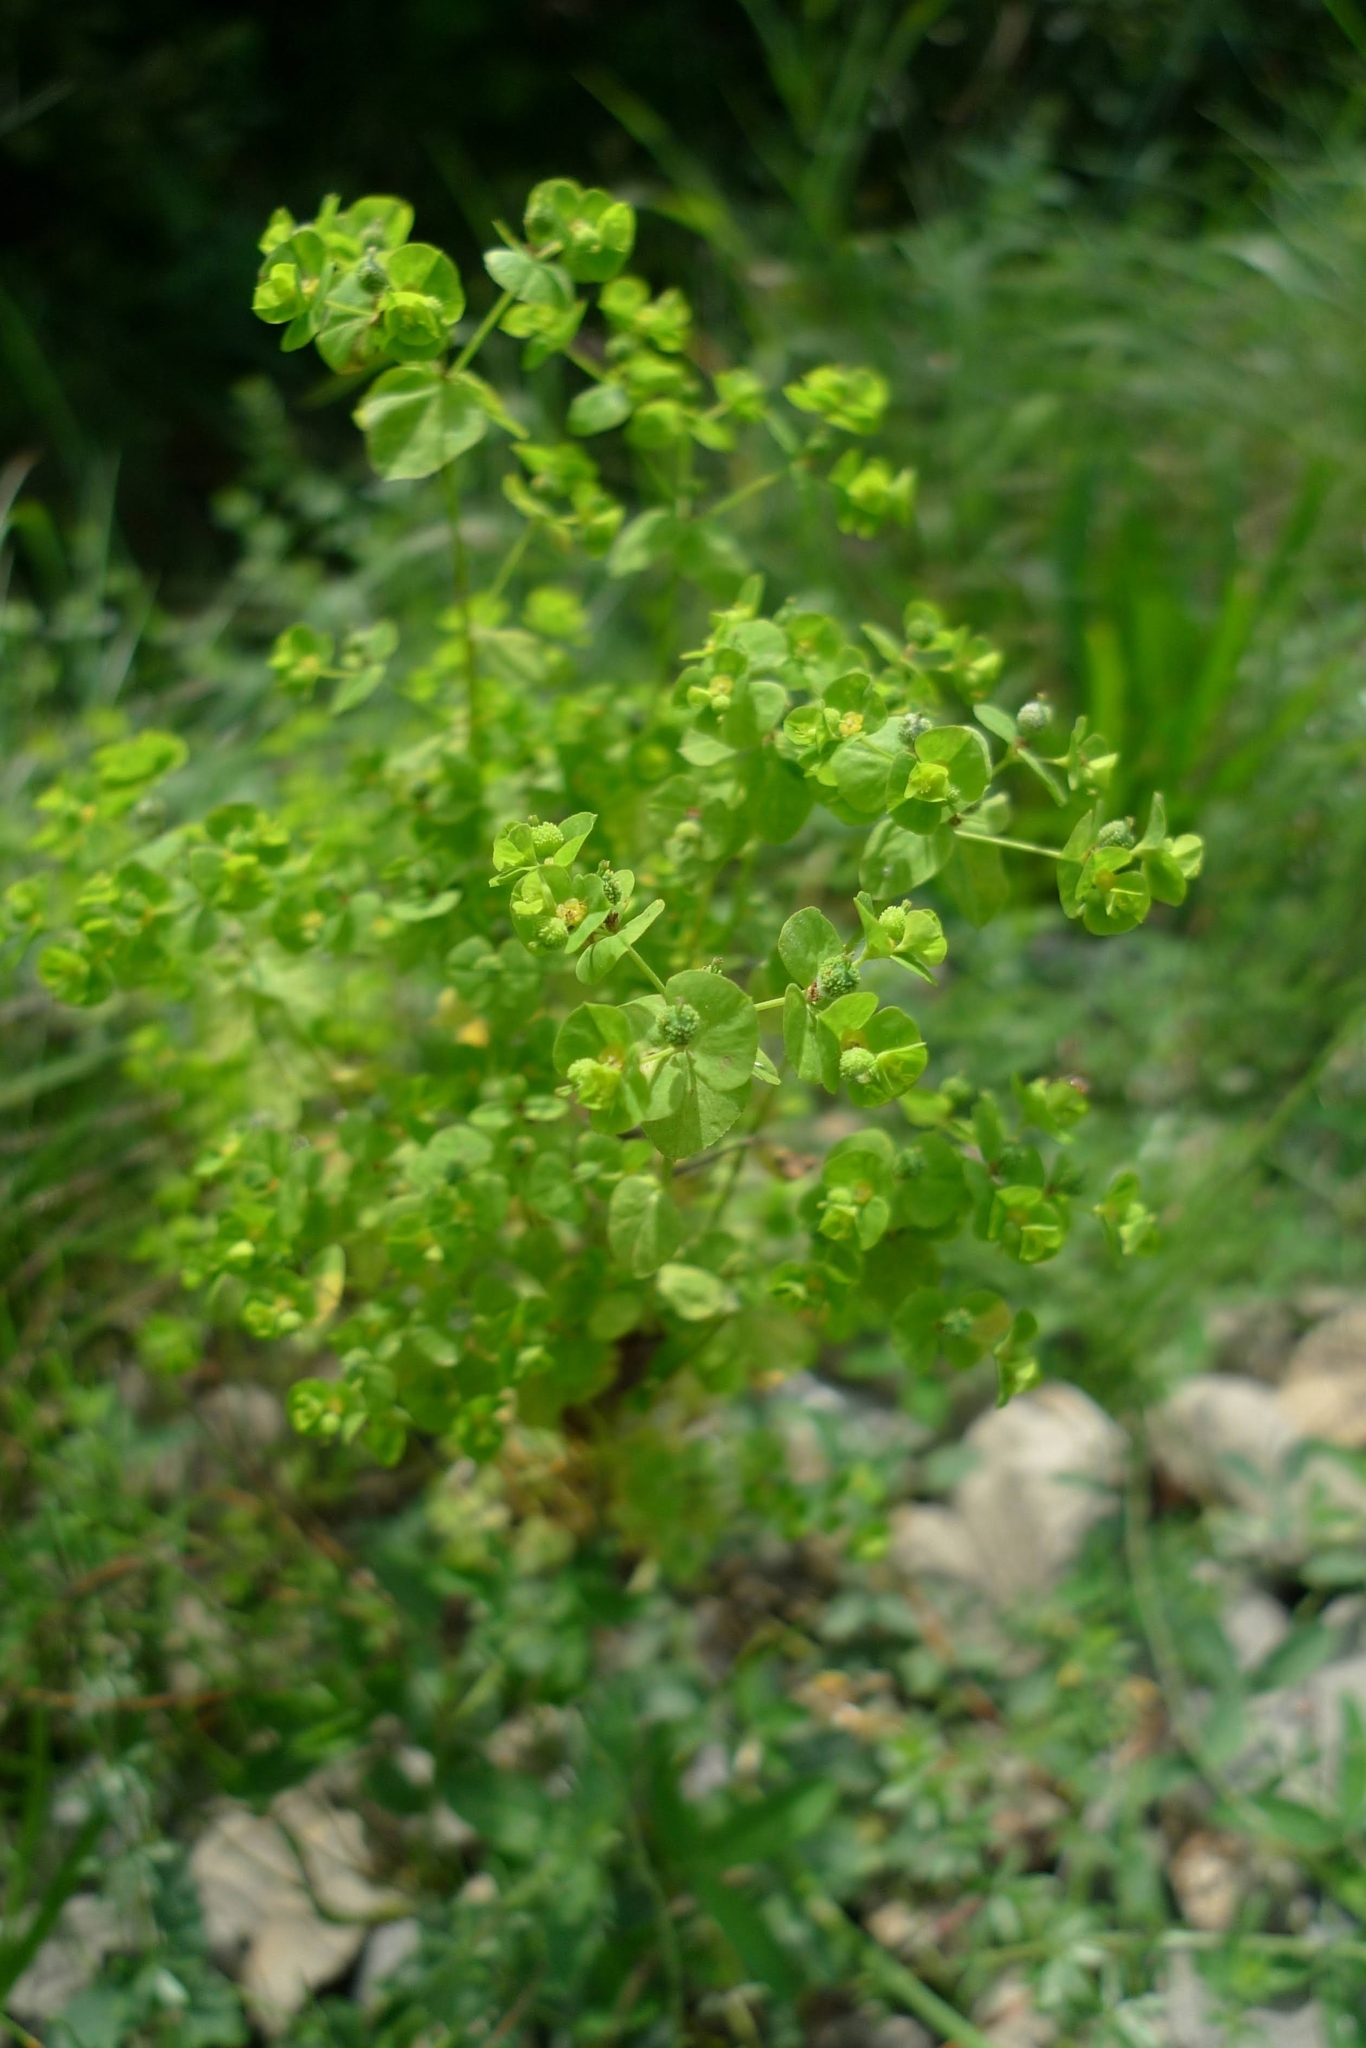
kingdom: Plantae
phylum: Tracheophyta
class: Magnoliopsida
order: Malpighiales
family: Euphorbiaceae
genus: Euphorbia
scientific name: Euphorbia stricta
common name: Upright spurge
